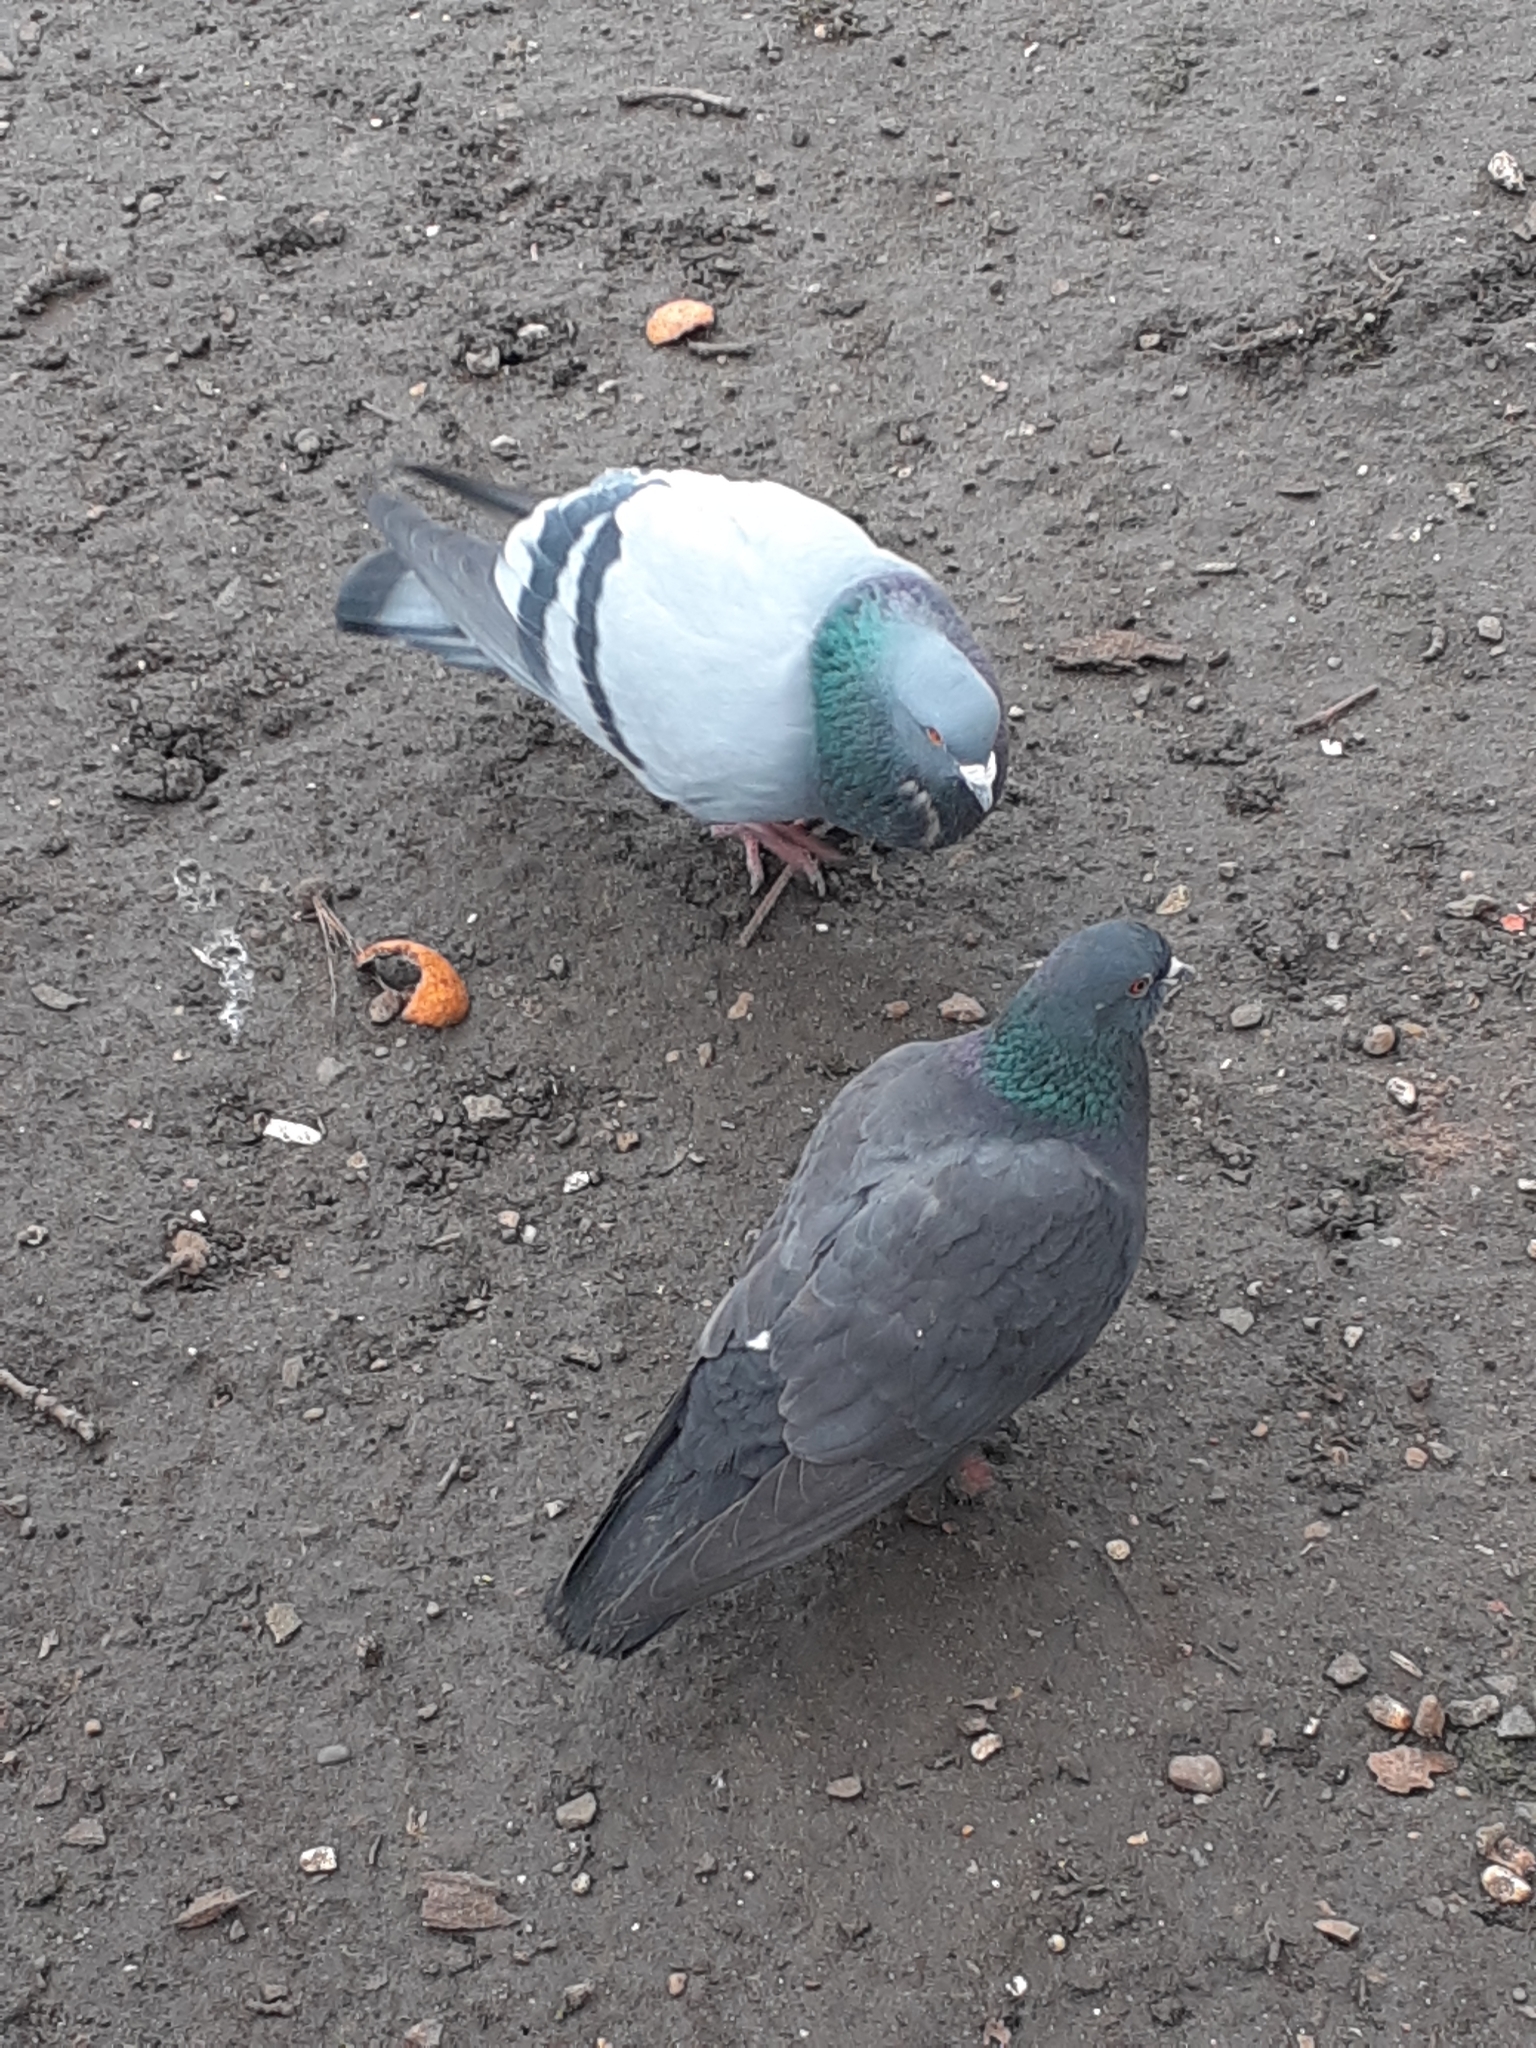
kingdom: Animalia
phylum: Chordata
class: Aves
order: Columbiformes
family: Columbidae
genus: Columba
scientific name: Columba livia
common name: Rock pigeon
